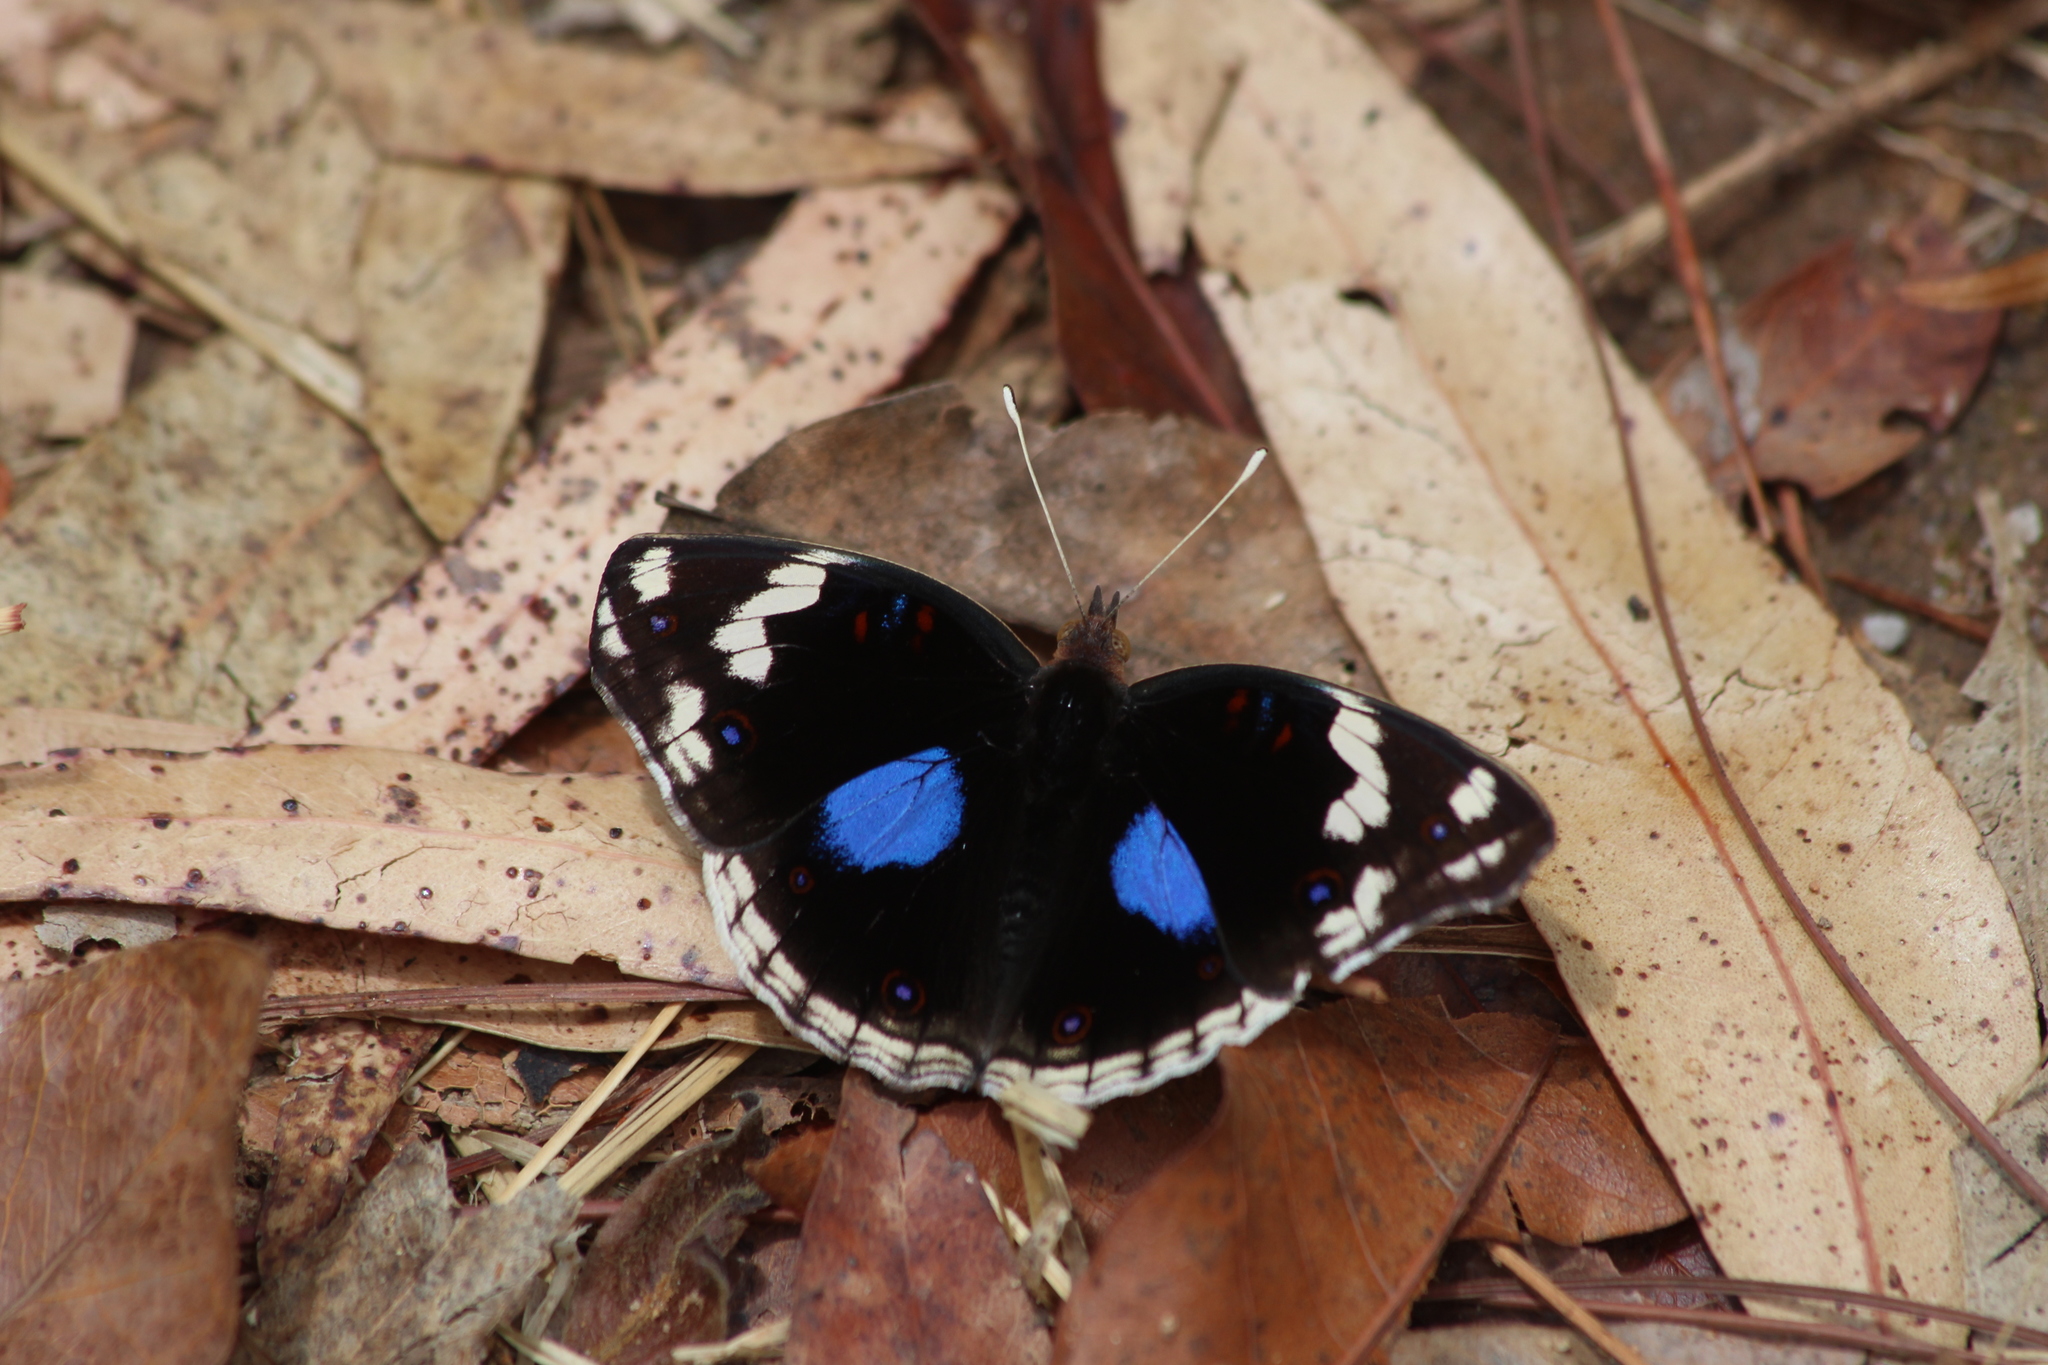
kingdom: Animalia
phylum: Arthropoda
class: Insecta
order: Lepidoptera
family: Nymphalidae
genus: Junonia
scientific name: Junonia oenone
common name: Dark blue pansy
